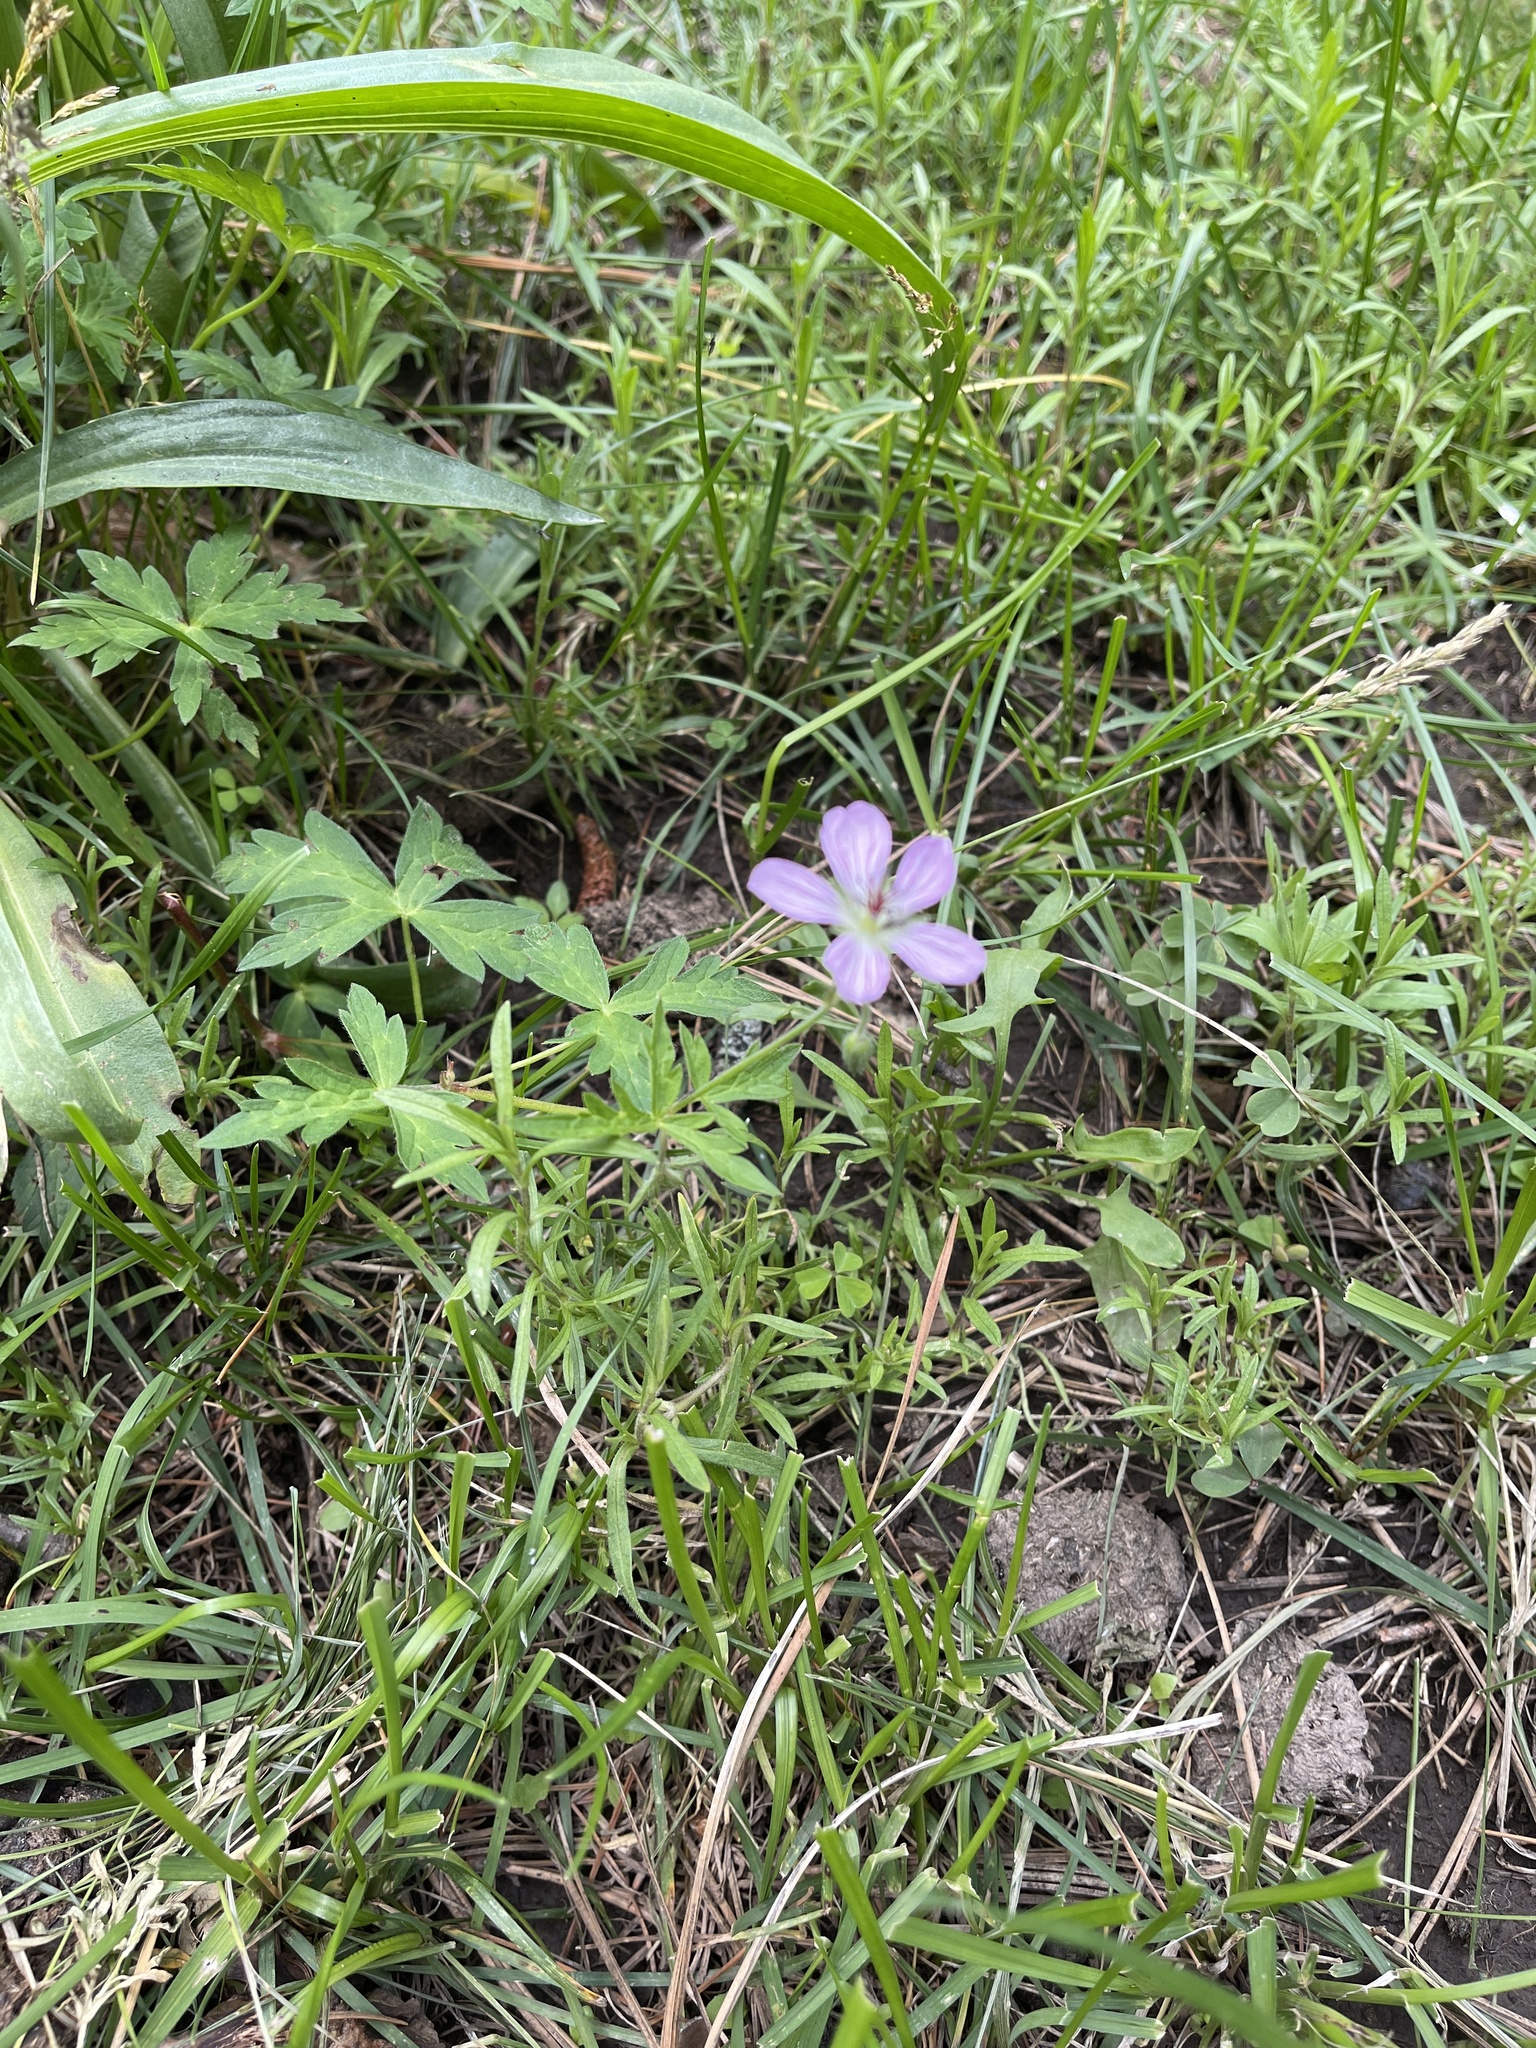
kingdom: Plantae
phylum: Tracheophyta
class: Magnoliopsida
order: Geraniales
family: Geraniaceae
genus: Geranium
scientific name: Geranium richardsonii
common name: Richardson's crane's-bill
